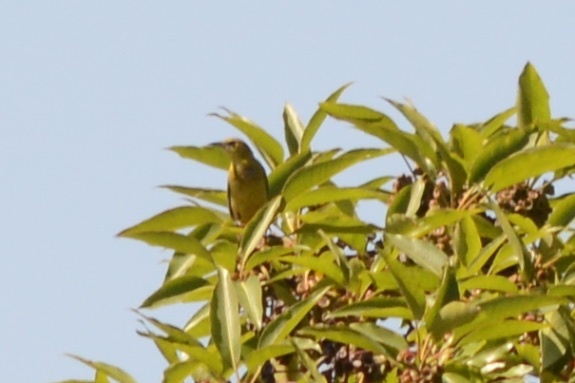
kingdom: Animalia
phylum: Chordata
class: Aves
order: Passeriformes
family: Icteridae
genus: Icterus
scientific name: Icterus cucullatus
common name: Hooded oriole
